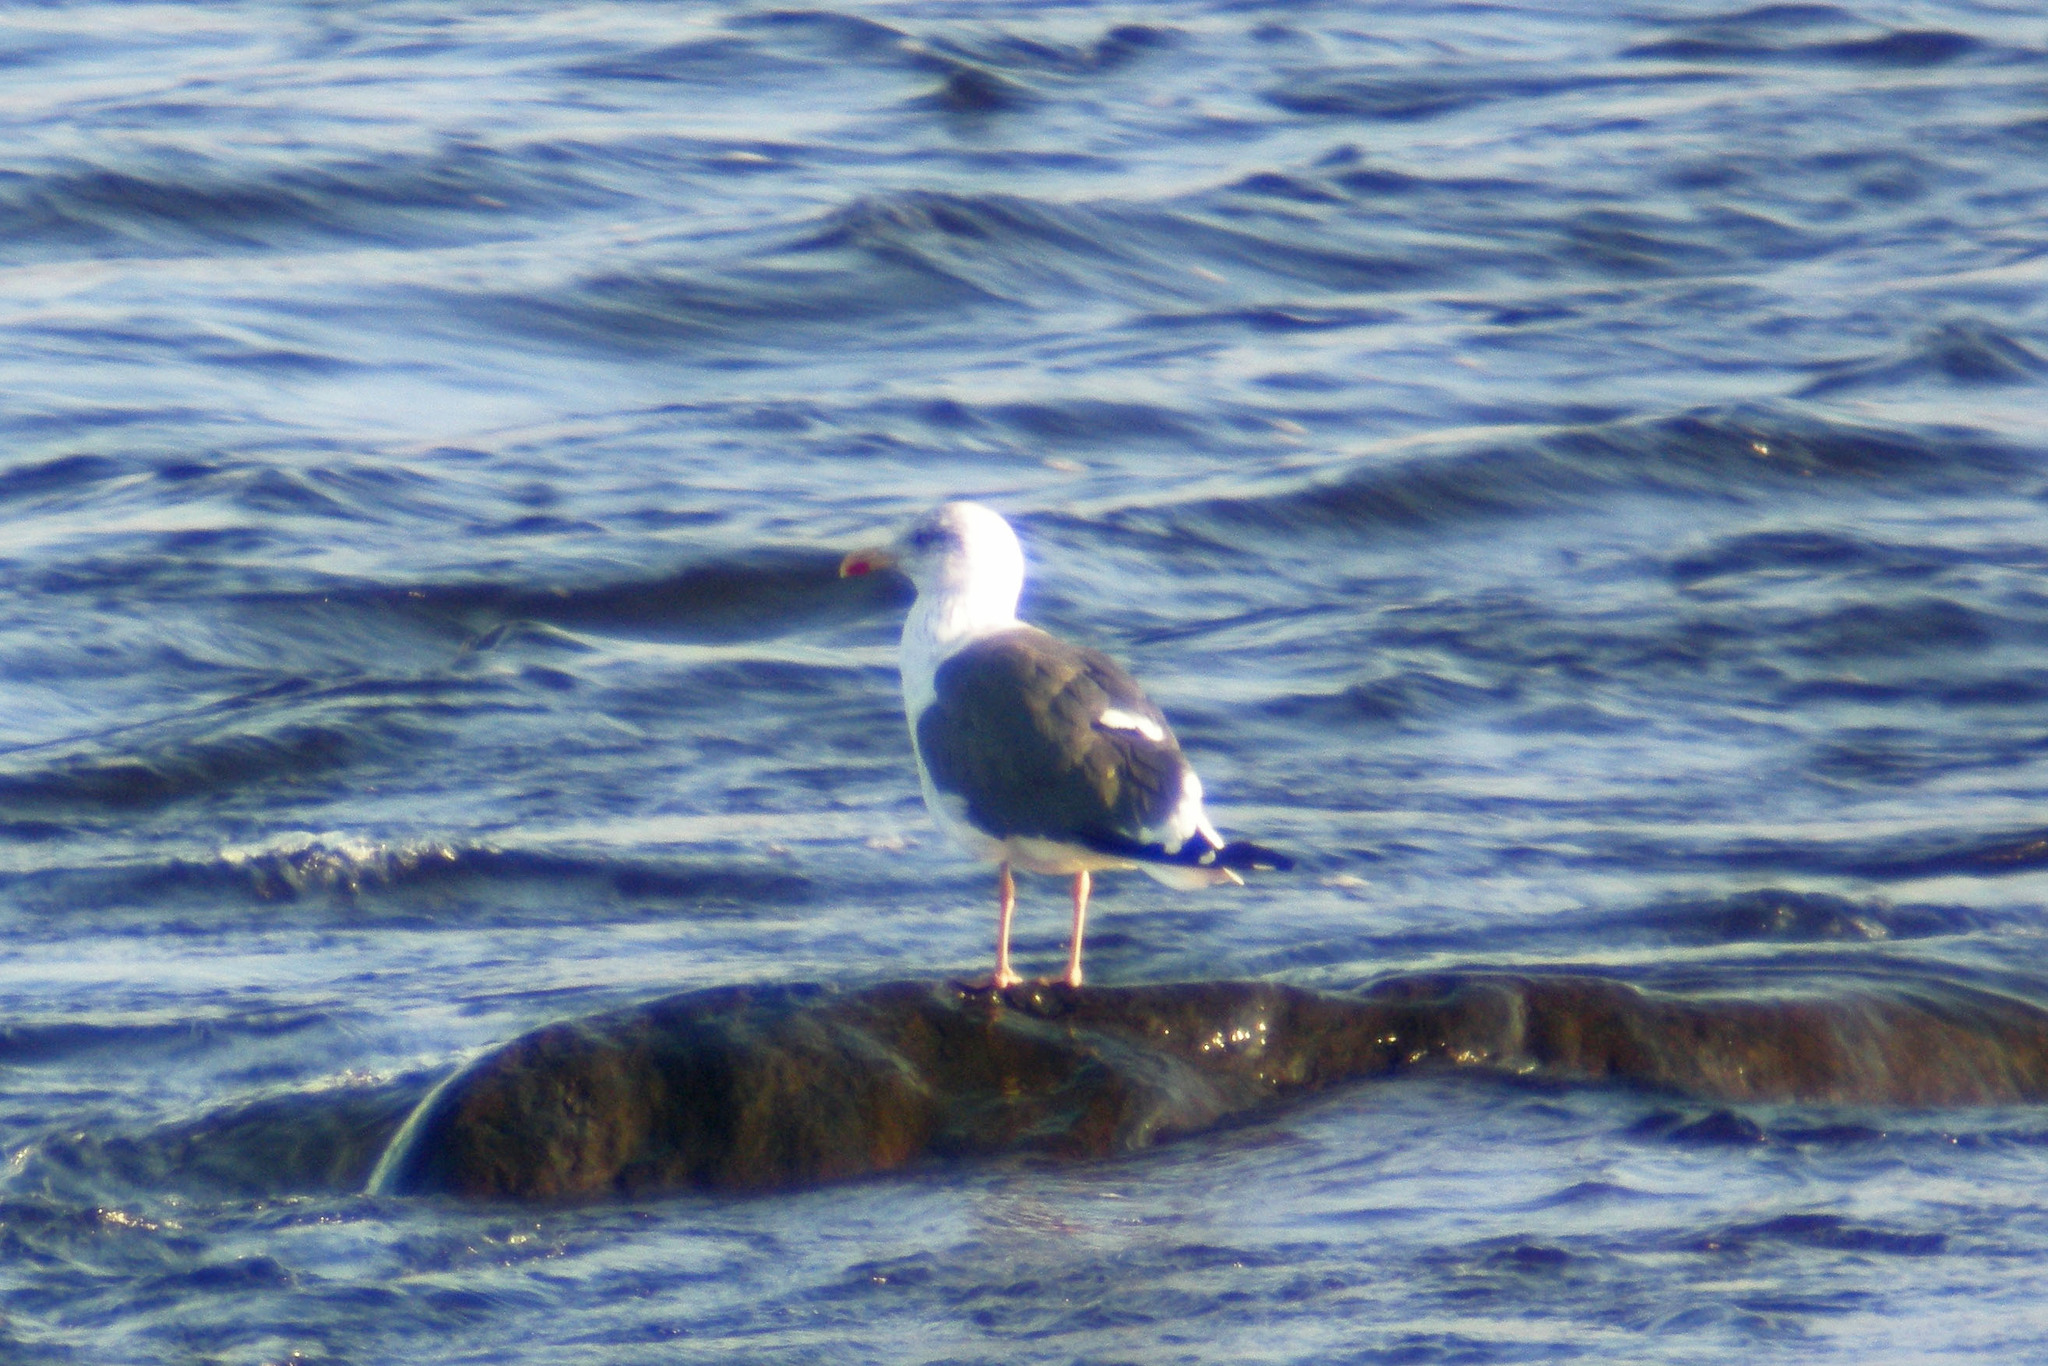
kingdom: Animalia
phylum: Chordata
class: Aves
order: Charadriiformes
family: Laridae
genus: Larus
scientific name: Larus fuscus
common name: Lesser black-backed gull
